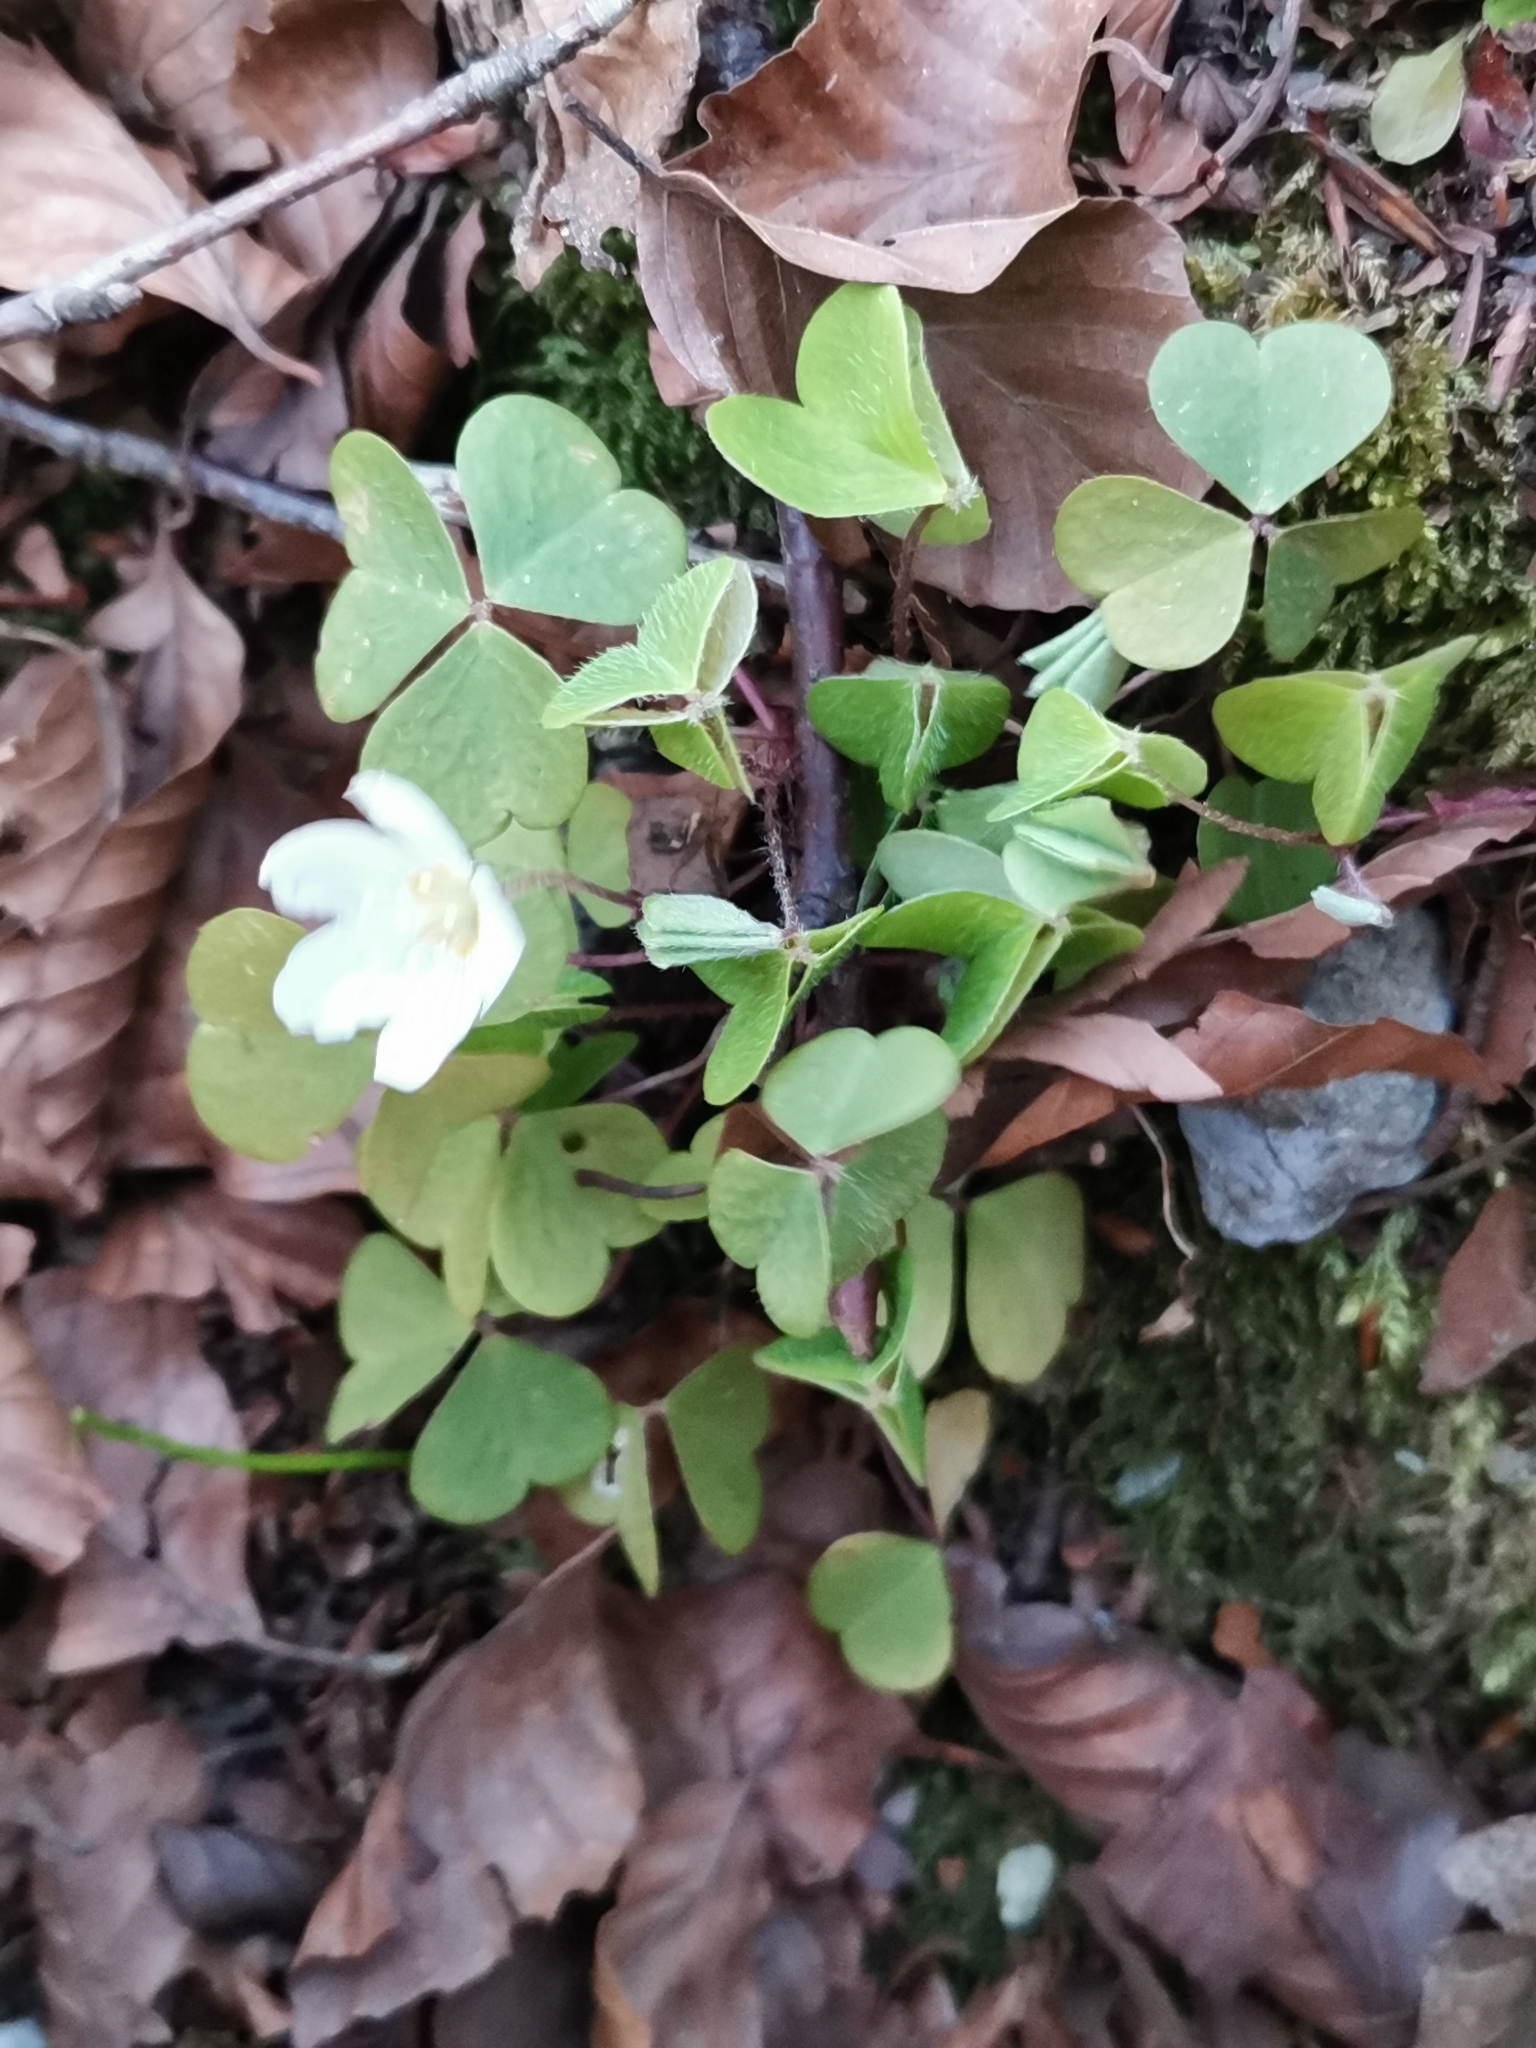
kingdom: Plantae
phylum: Tracheophyta
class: Magnoliopsida
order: Oxalidales
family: Oxalidaceae
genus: Oxalis
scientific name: Oxalis acetosella
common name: Wood-sorrel
